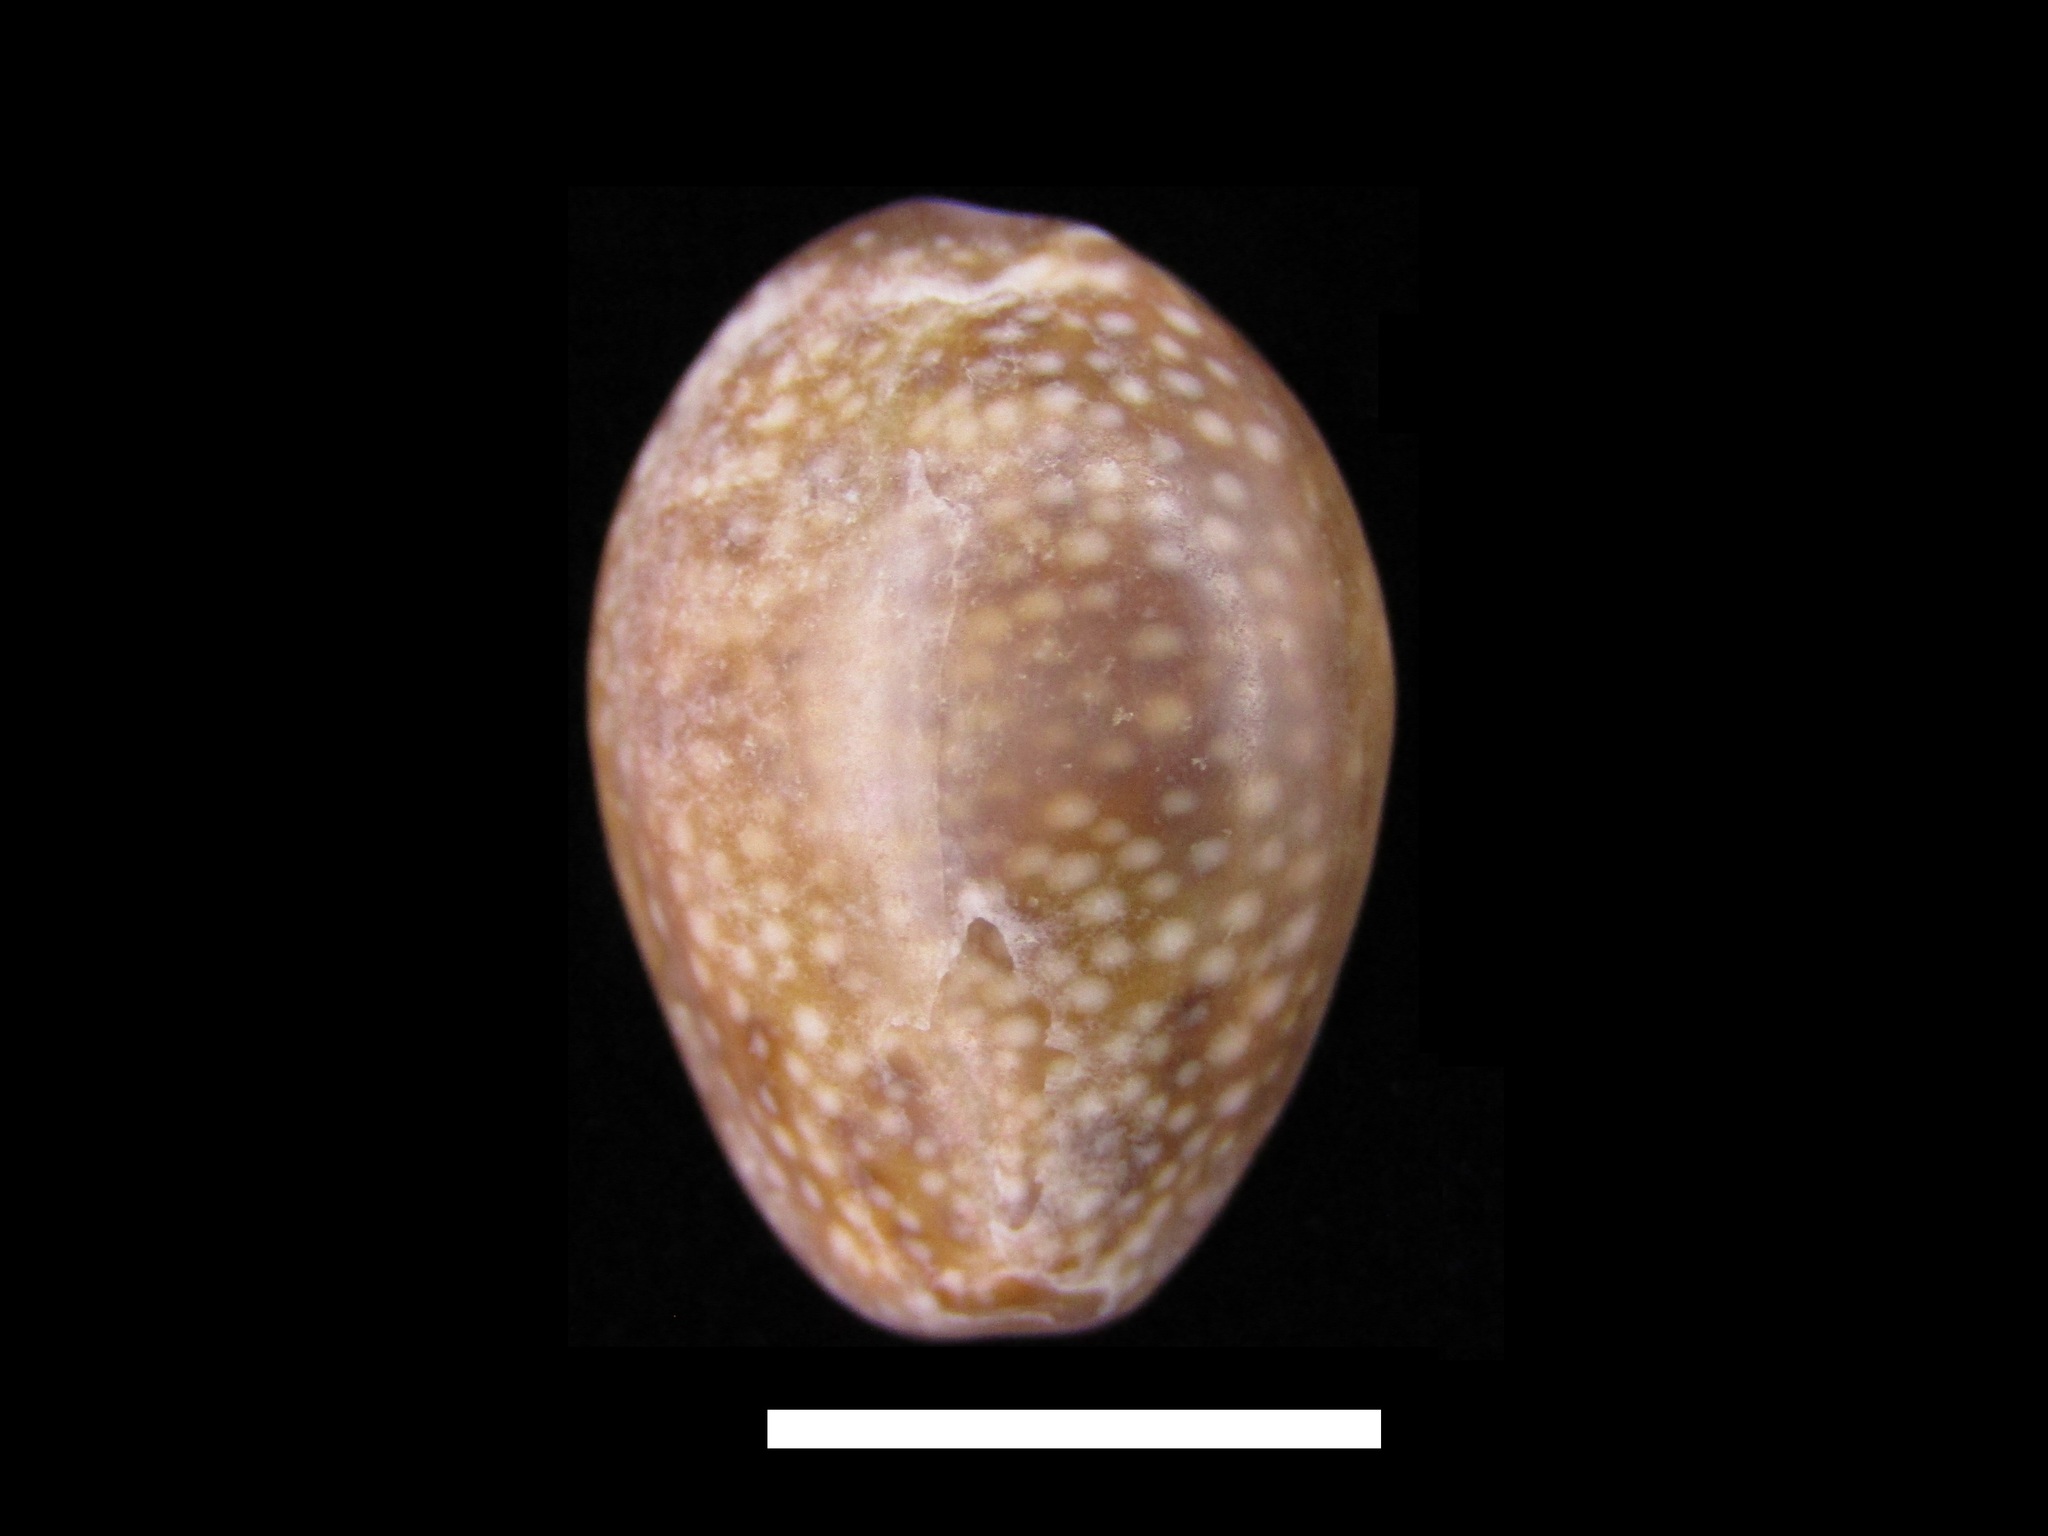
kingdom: Animalia
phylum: Mollusca
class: Gastropoda
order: Littorinimorpha
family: Cypraeidae
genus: Naria
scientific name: Naria poraria
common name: Cowrie
